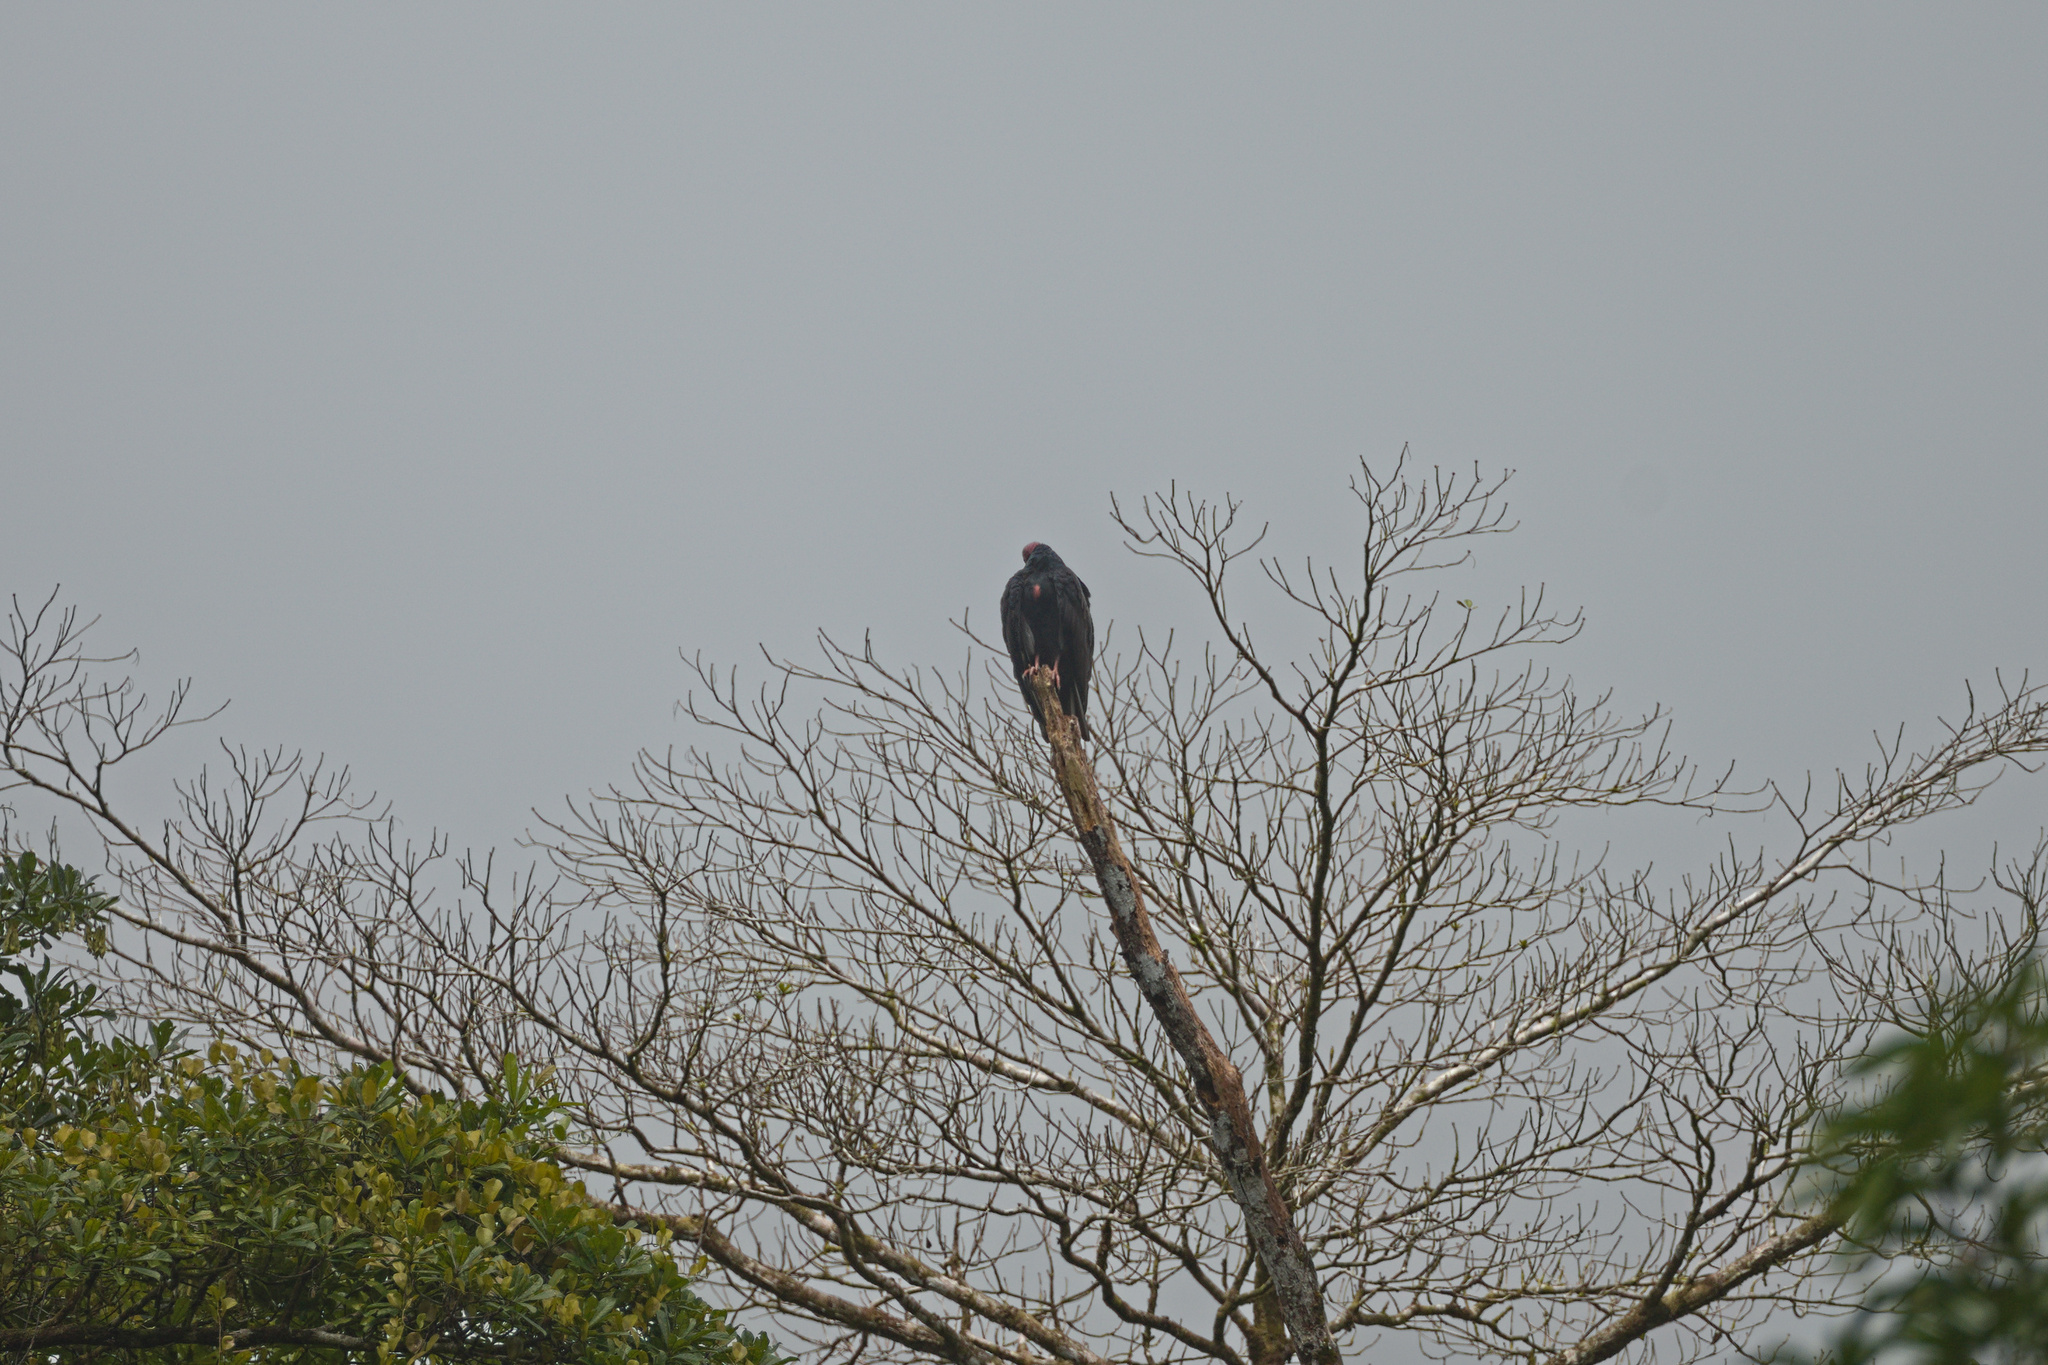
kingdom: Animalia
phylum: Chordata
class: Aves
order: Accipitriformes
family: Cathartidae
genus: Cathartes
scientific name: Cathartes aura
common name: Turkey vulture
